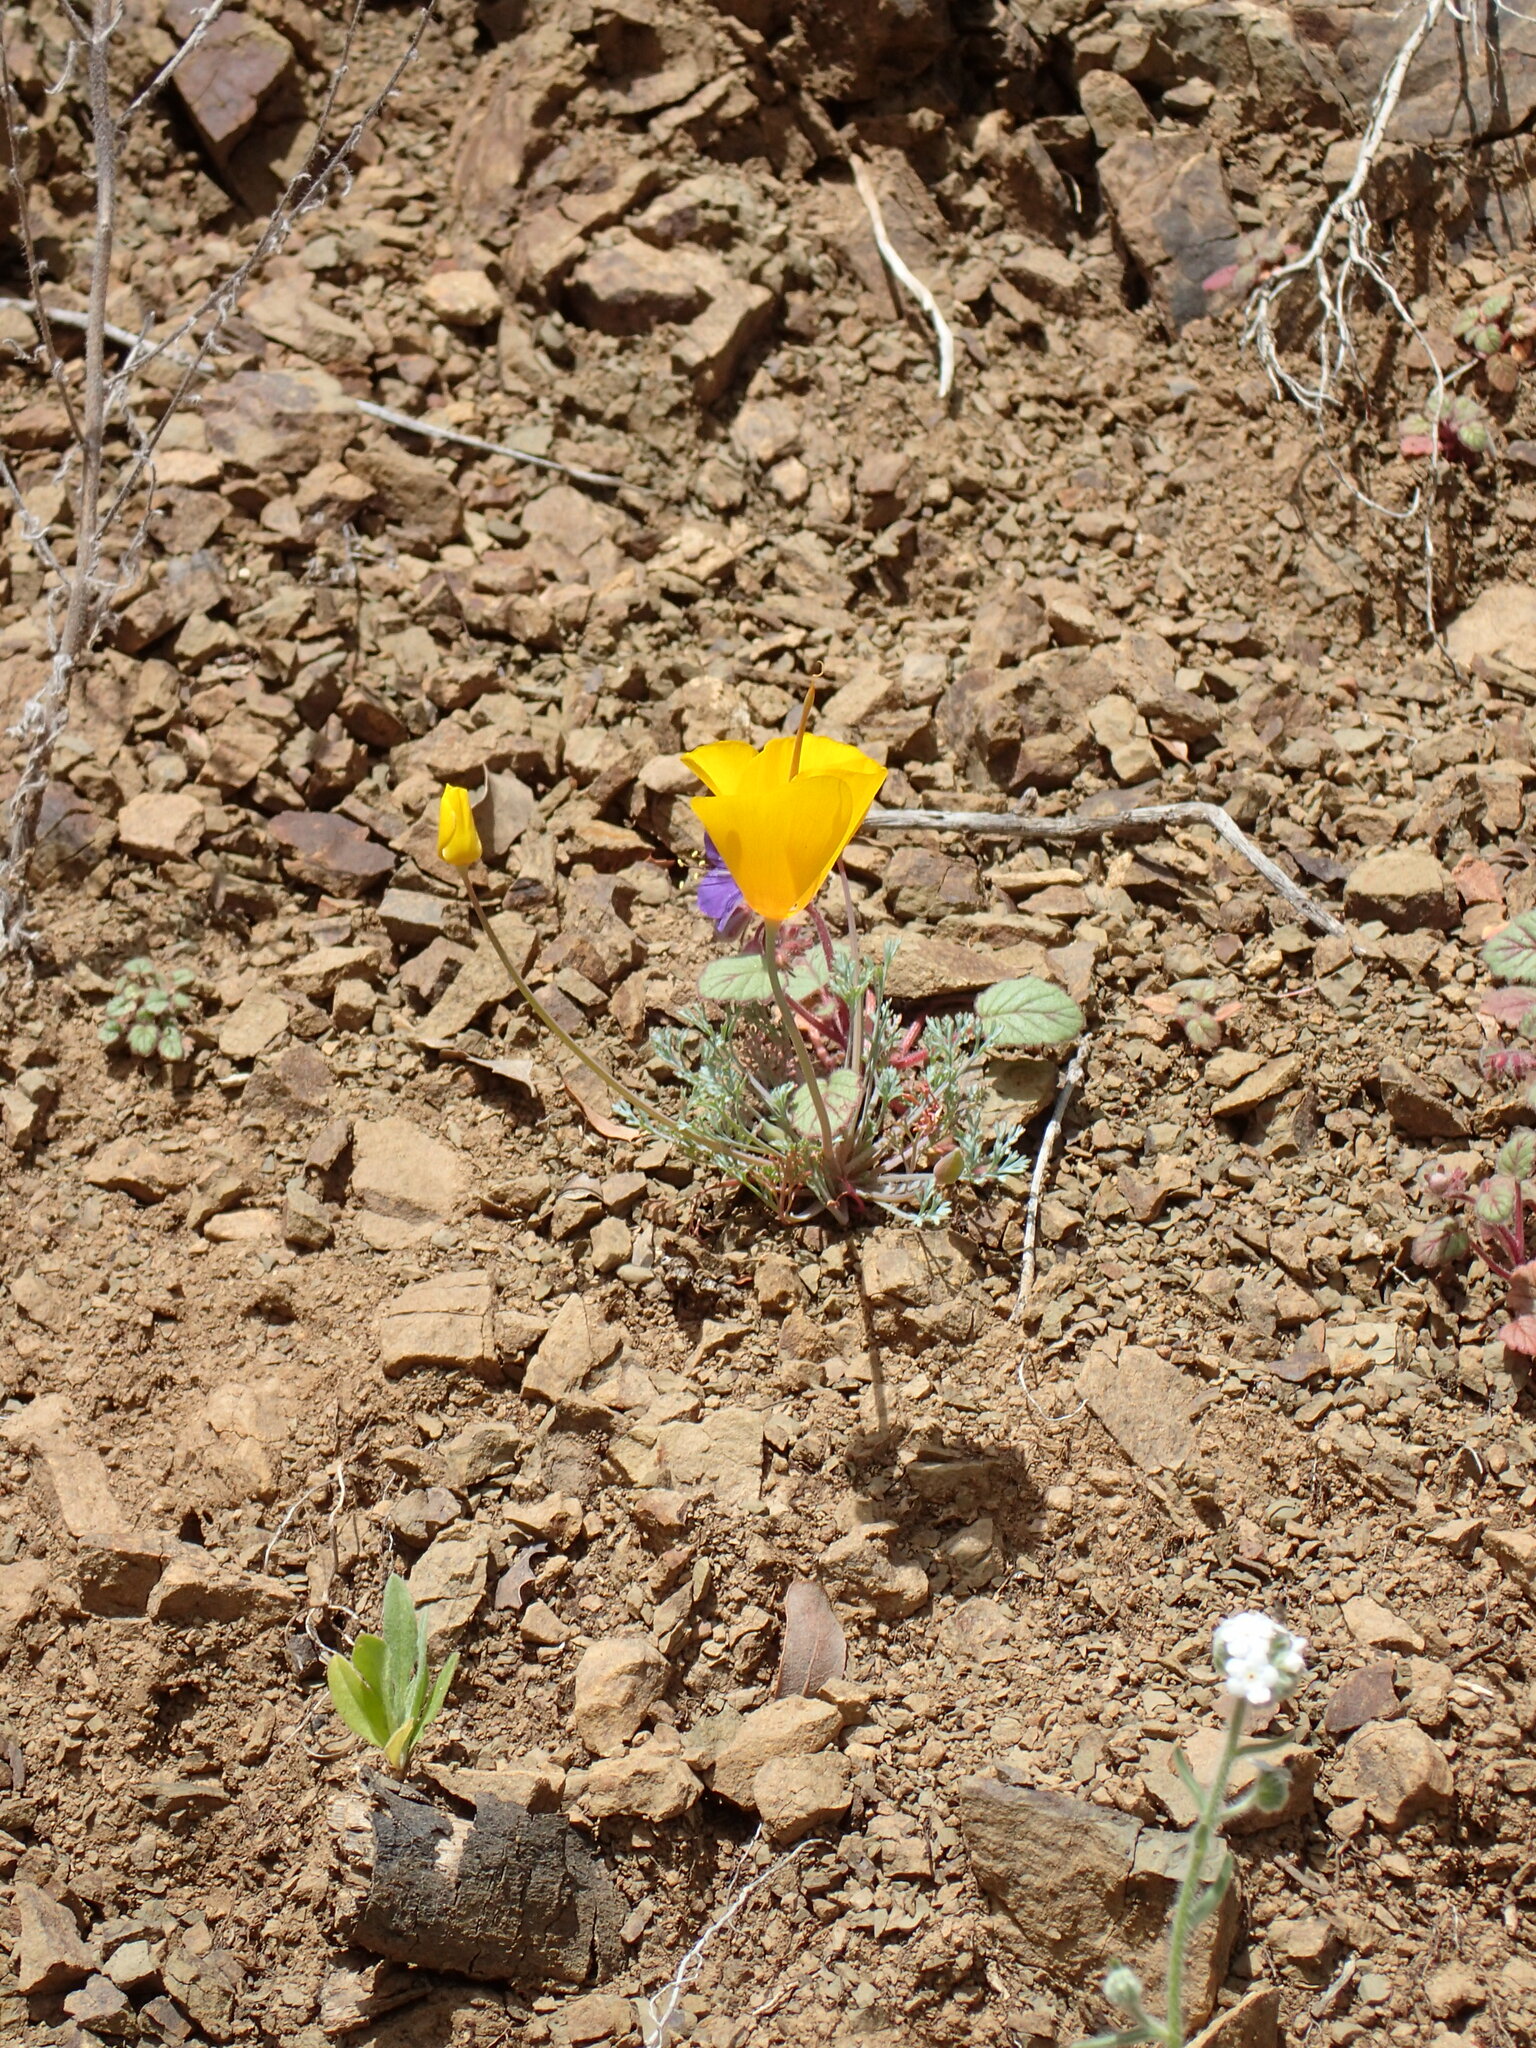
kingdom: Plantae
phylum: Tracheophyta
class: Magnoliopsida
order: Ranunculales
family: Papaveraceae
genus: Eschscholzia
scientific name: Eschscholzia caespitosa
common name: Tufted california-poppy
